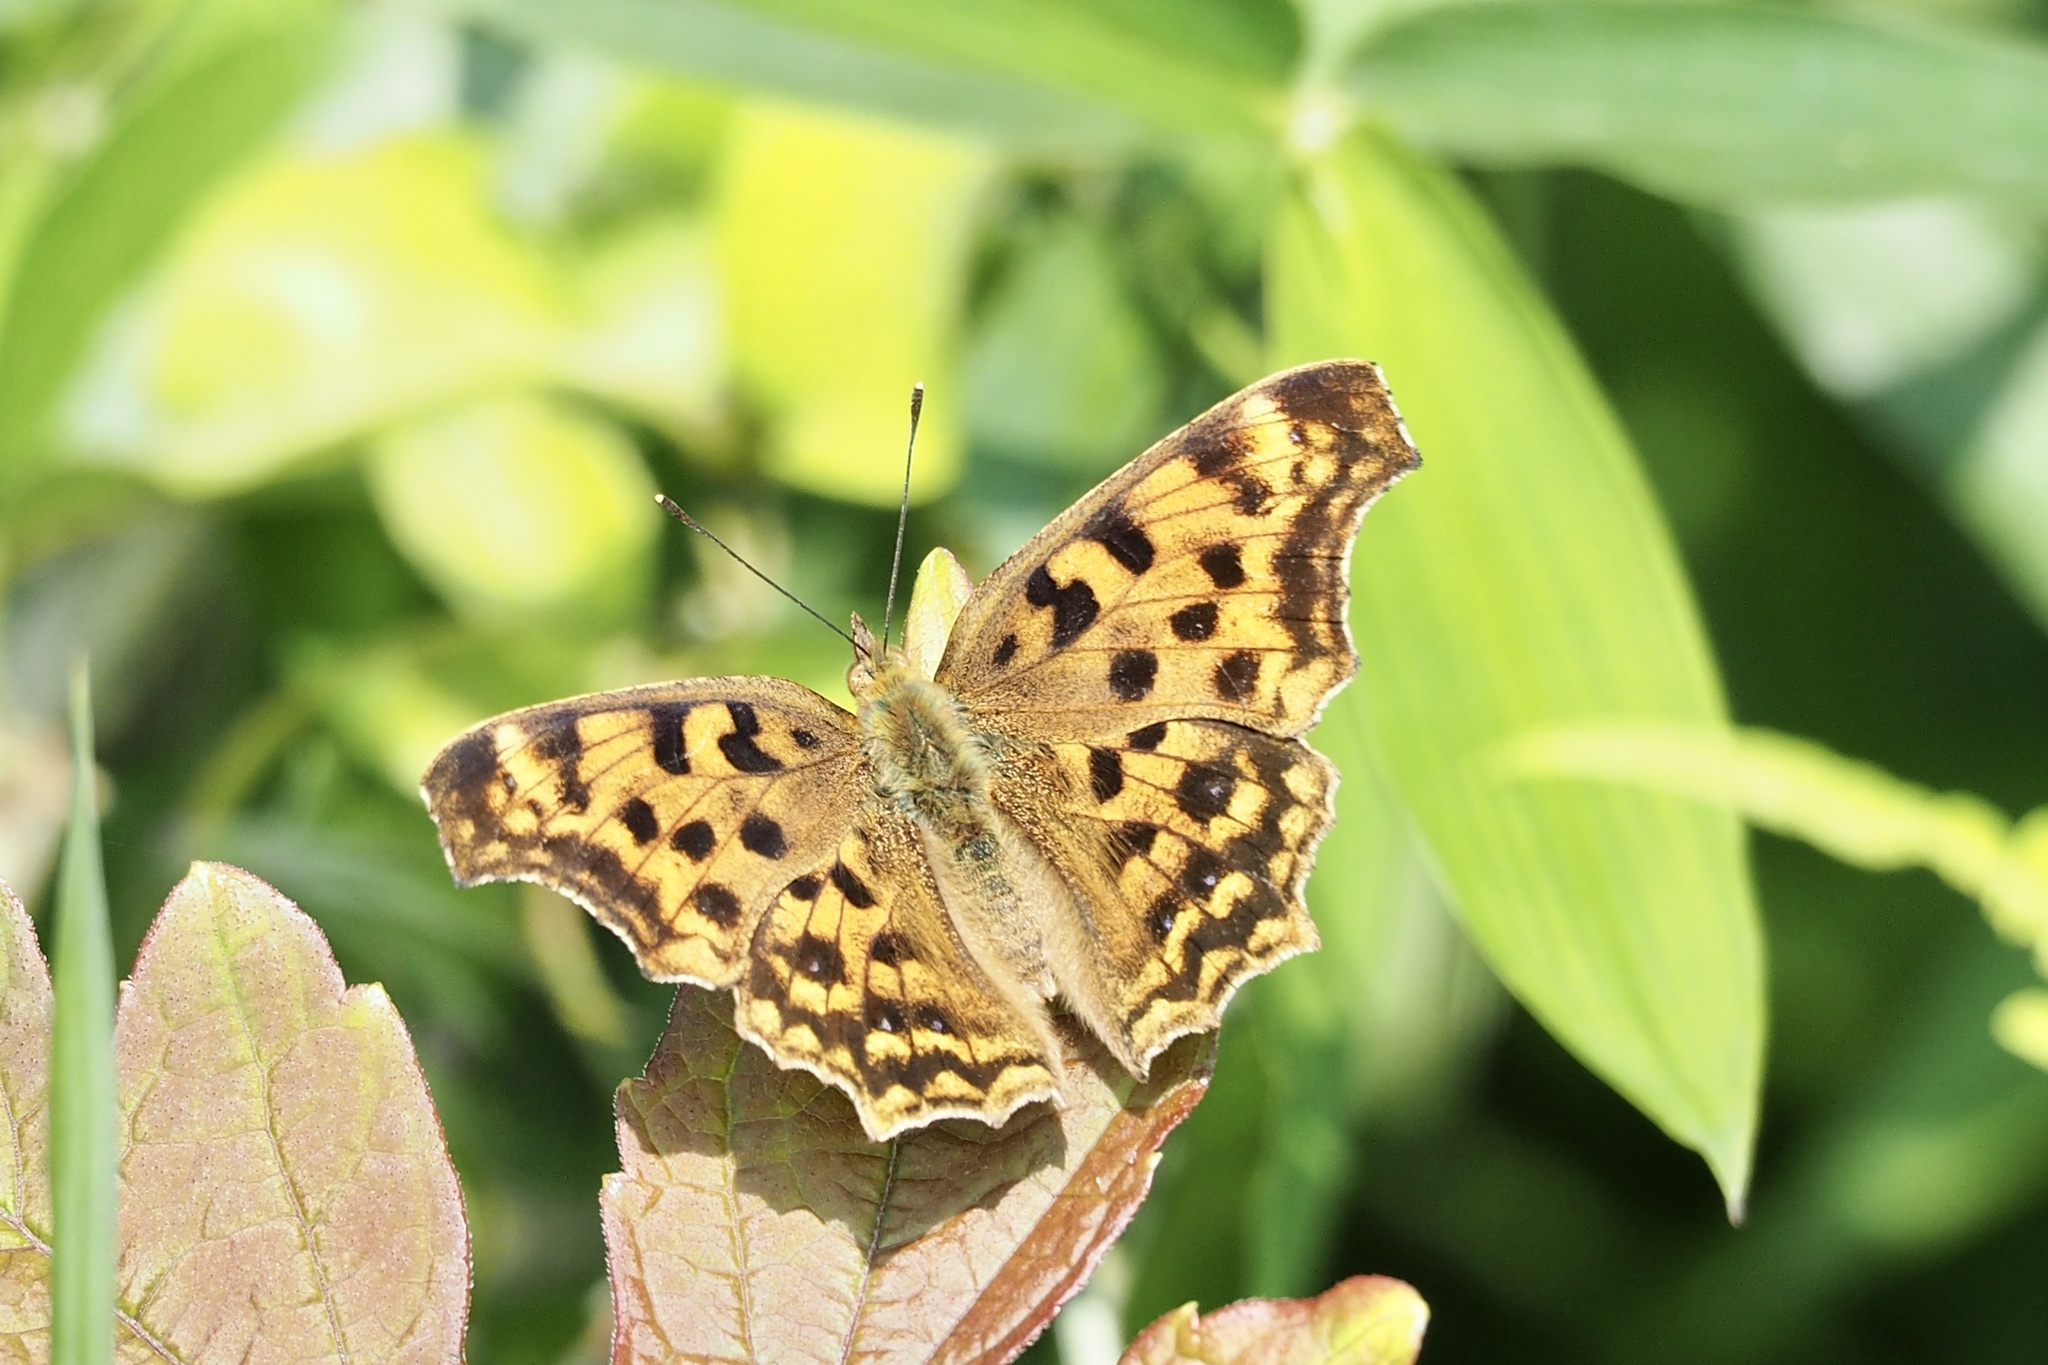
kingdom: Animalia
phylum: Arthropoda
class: Insecta
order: Lepidoptera
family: Nymphalidae
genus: Polygonia
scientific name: Polygonia c-aureum
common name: Asian comma
